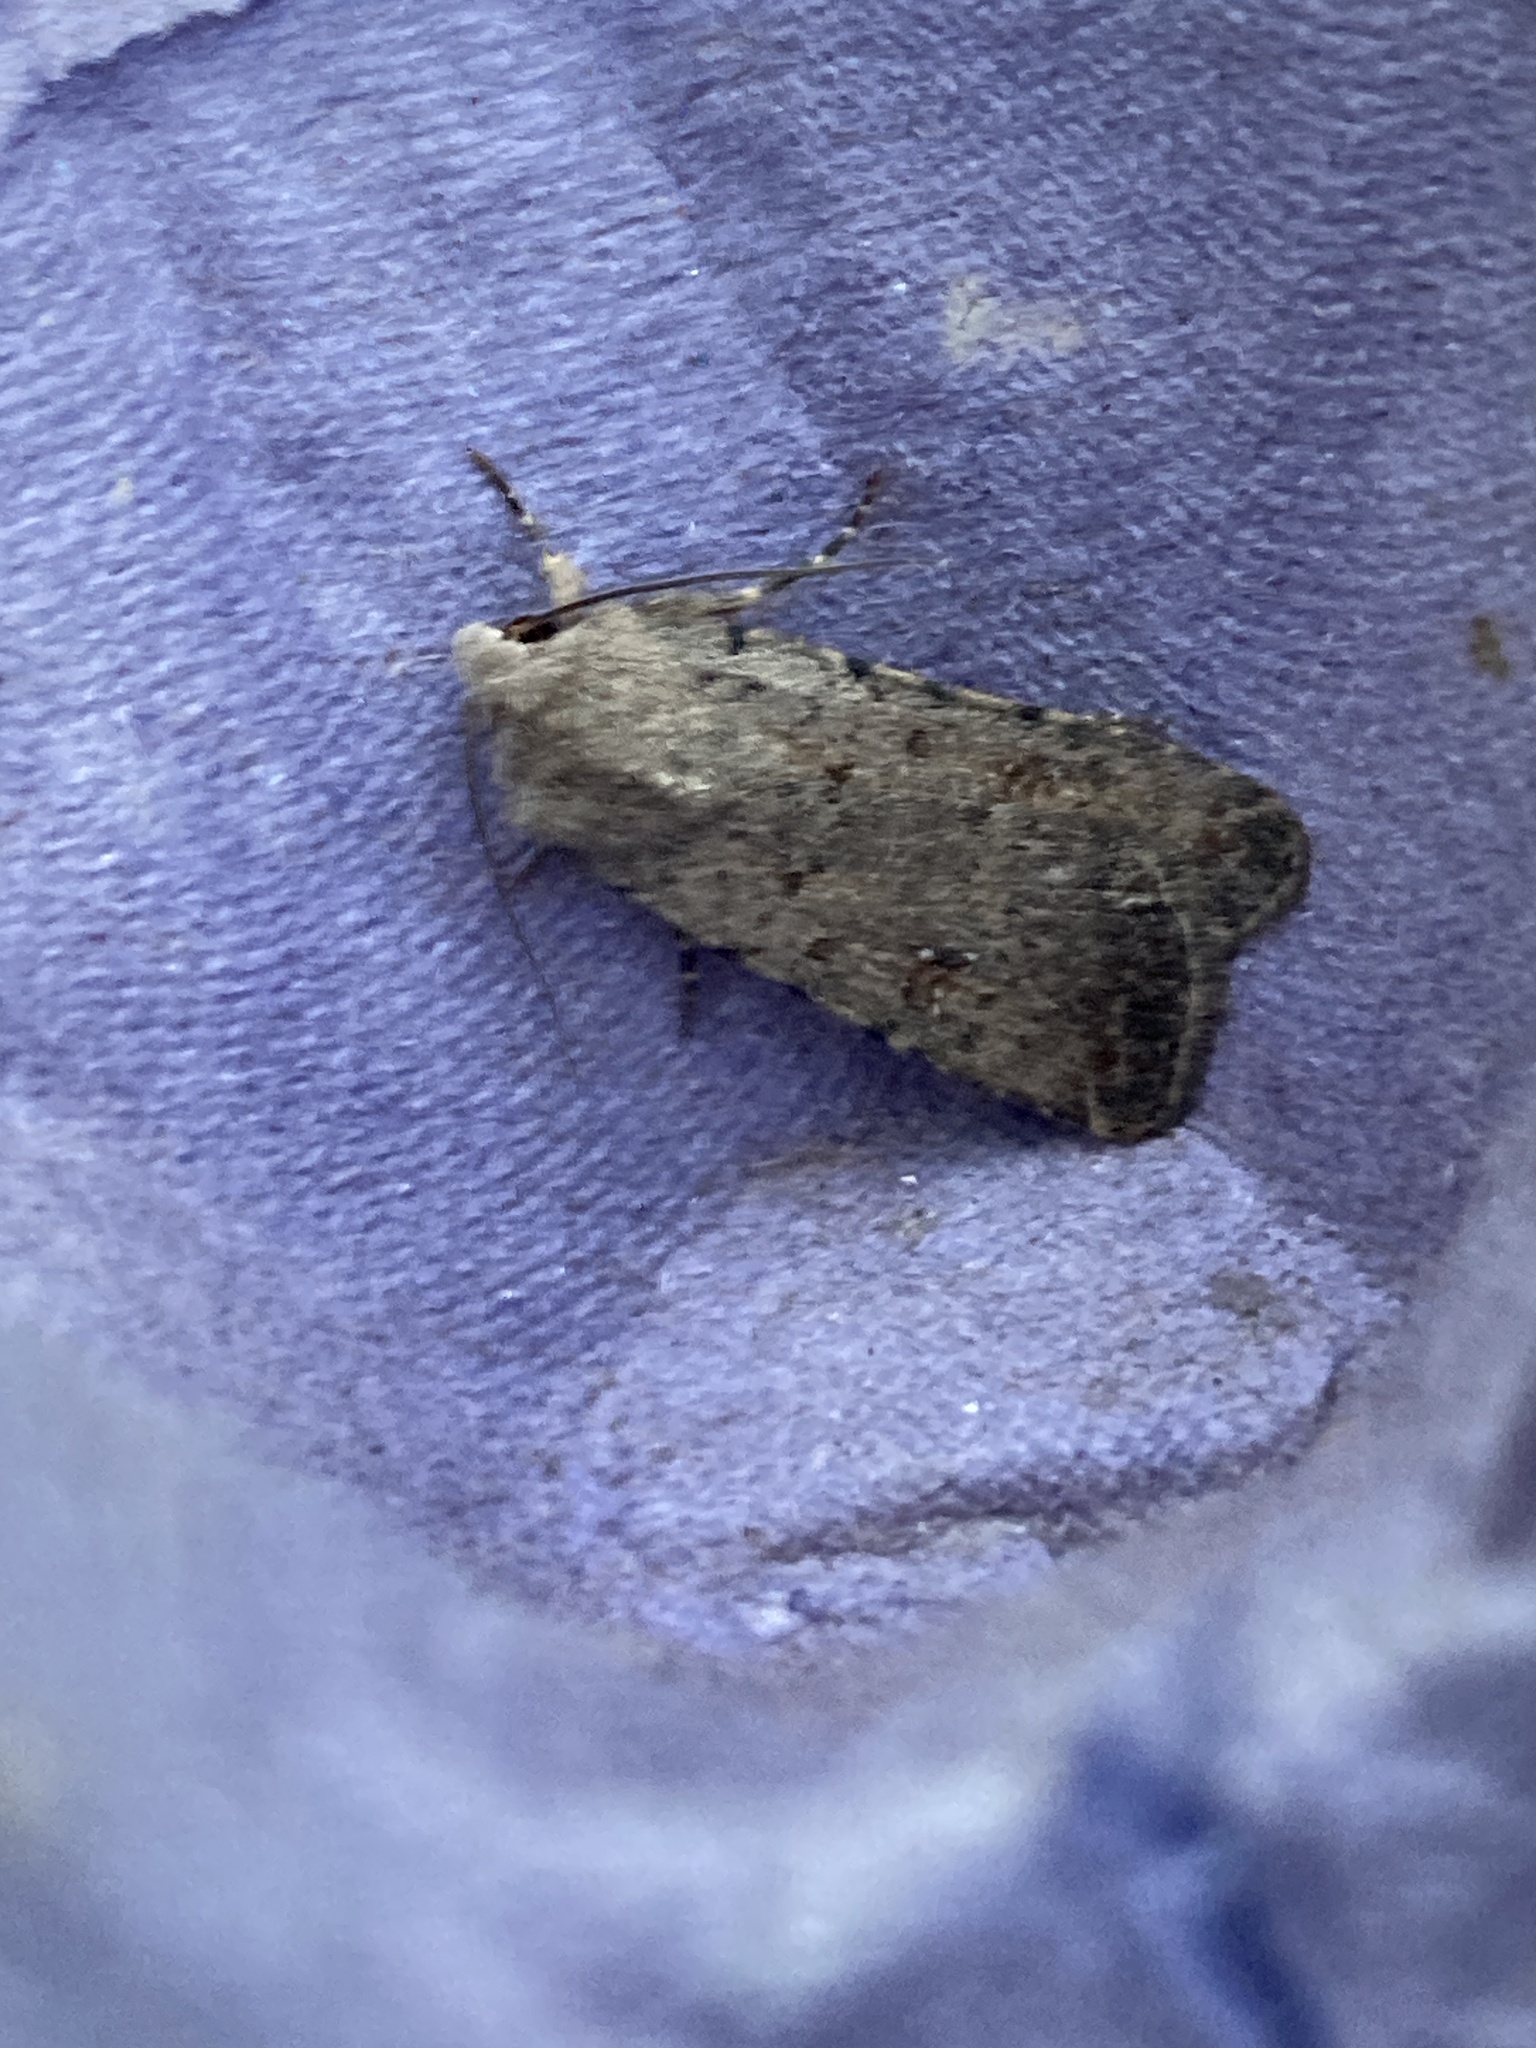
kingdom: Animalia
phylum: Arthropoda
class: Insecta
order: Lepidoptera
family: Noctuidae
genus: Caradrina
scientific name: Caradrina clavipalpis
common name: Pale mottled willow
